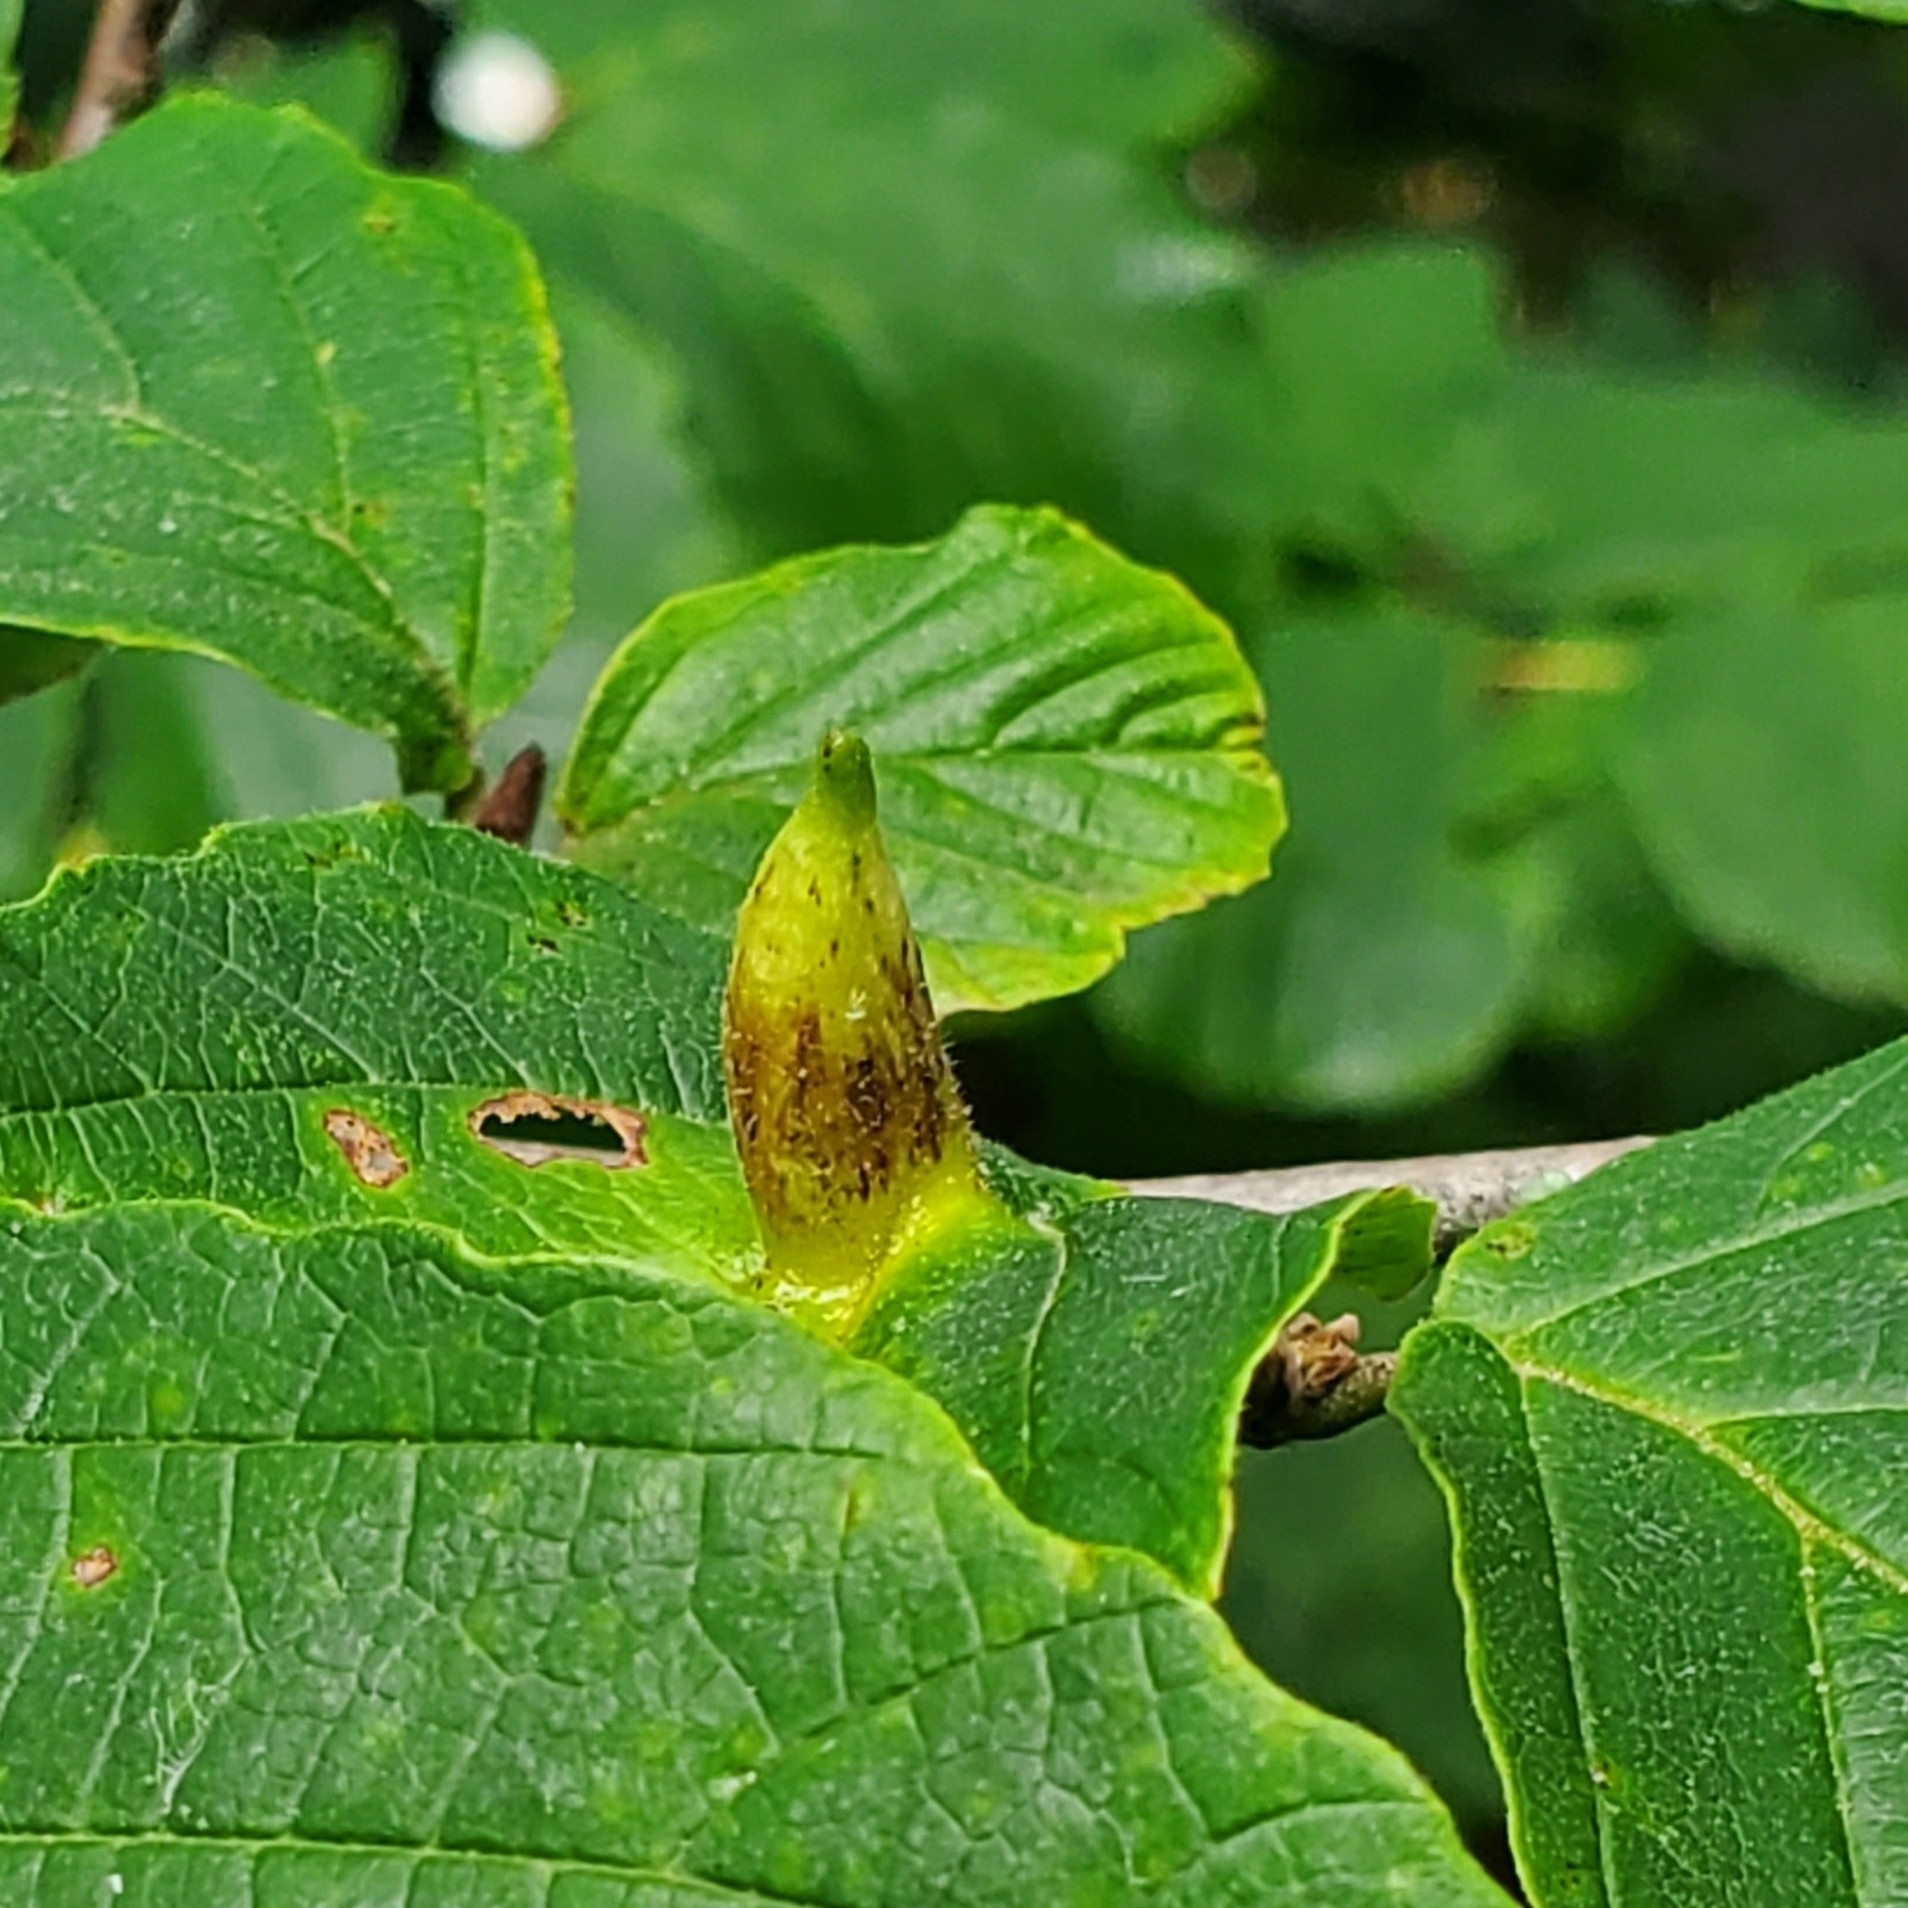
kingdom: Animalia
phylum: Arthropoda
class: Insecta
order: Hemiptera
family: Aphididae
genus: Hormaphis
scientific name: Hormaphis hamamelidis
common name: Witch-hazel cone gall aphid
